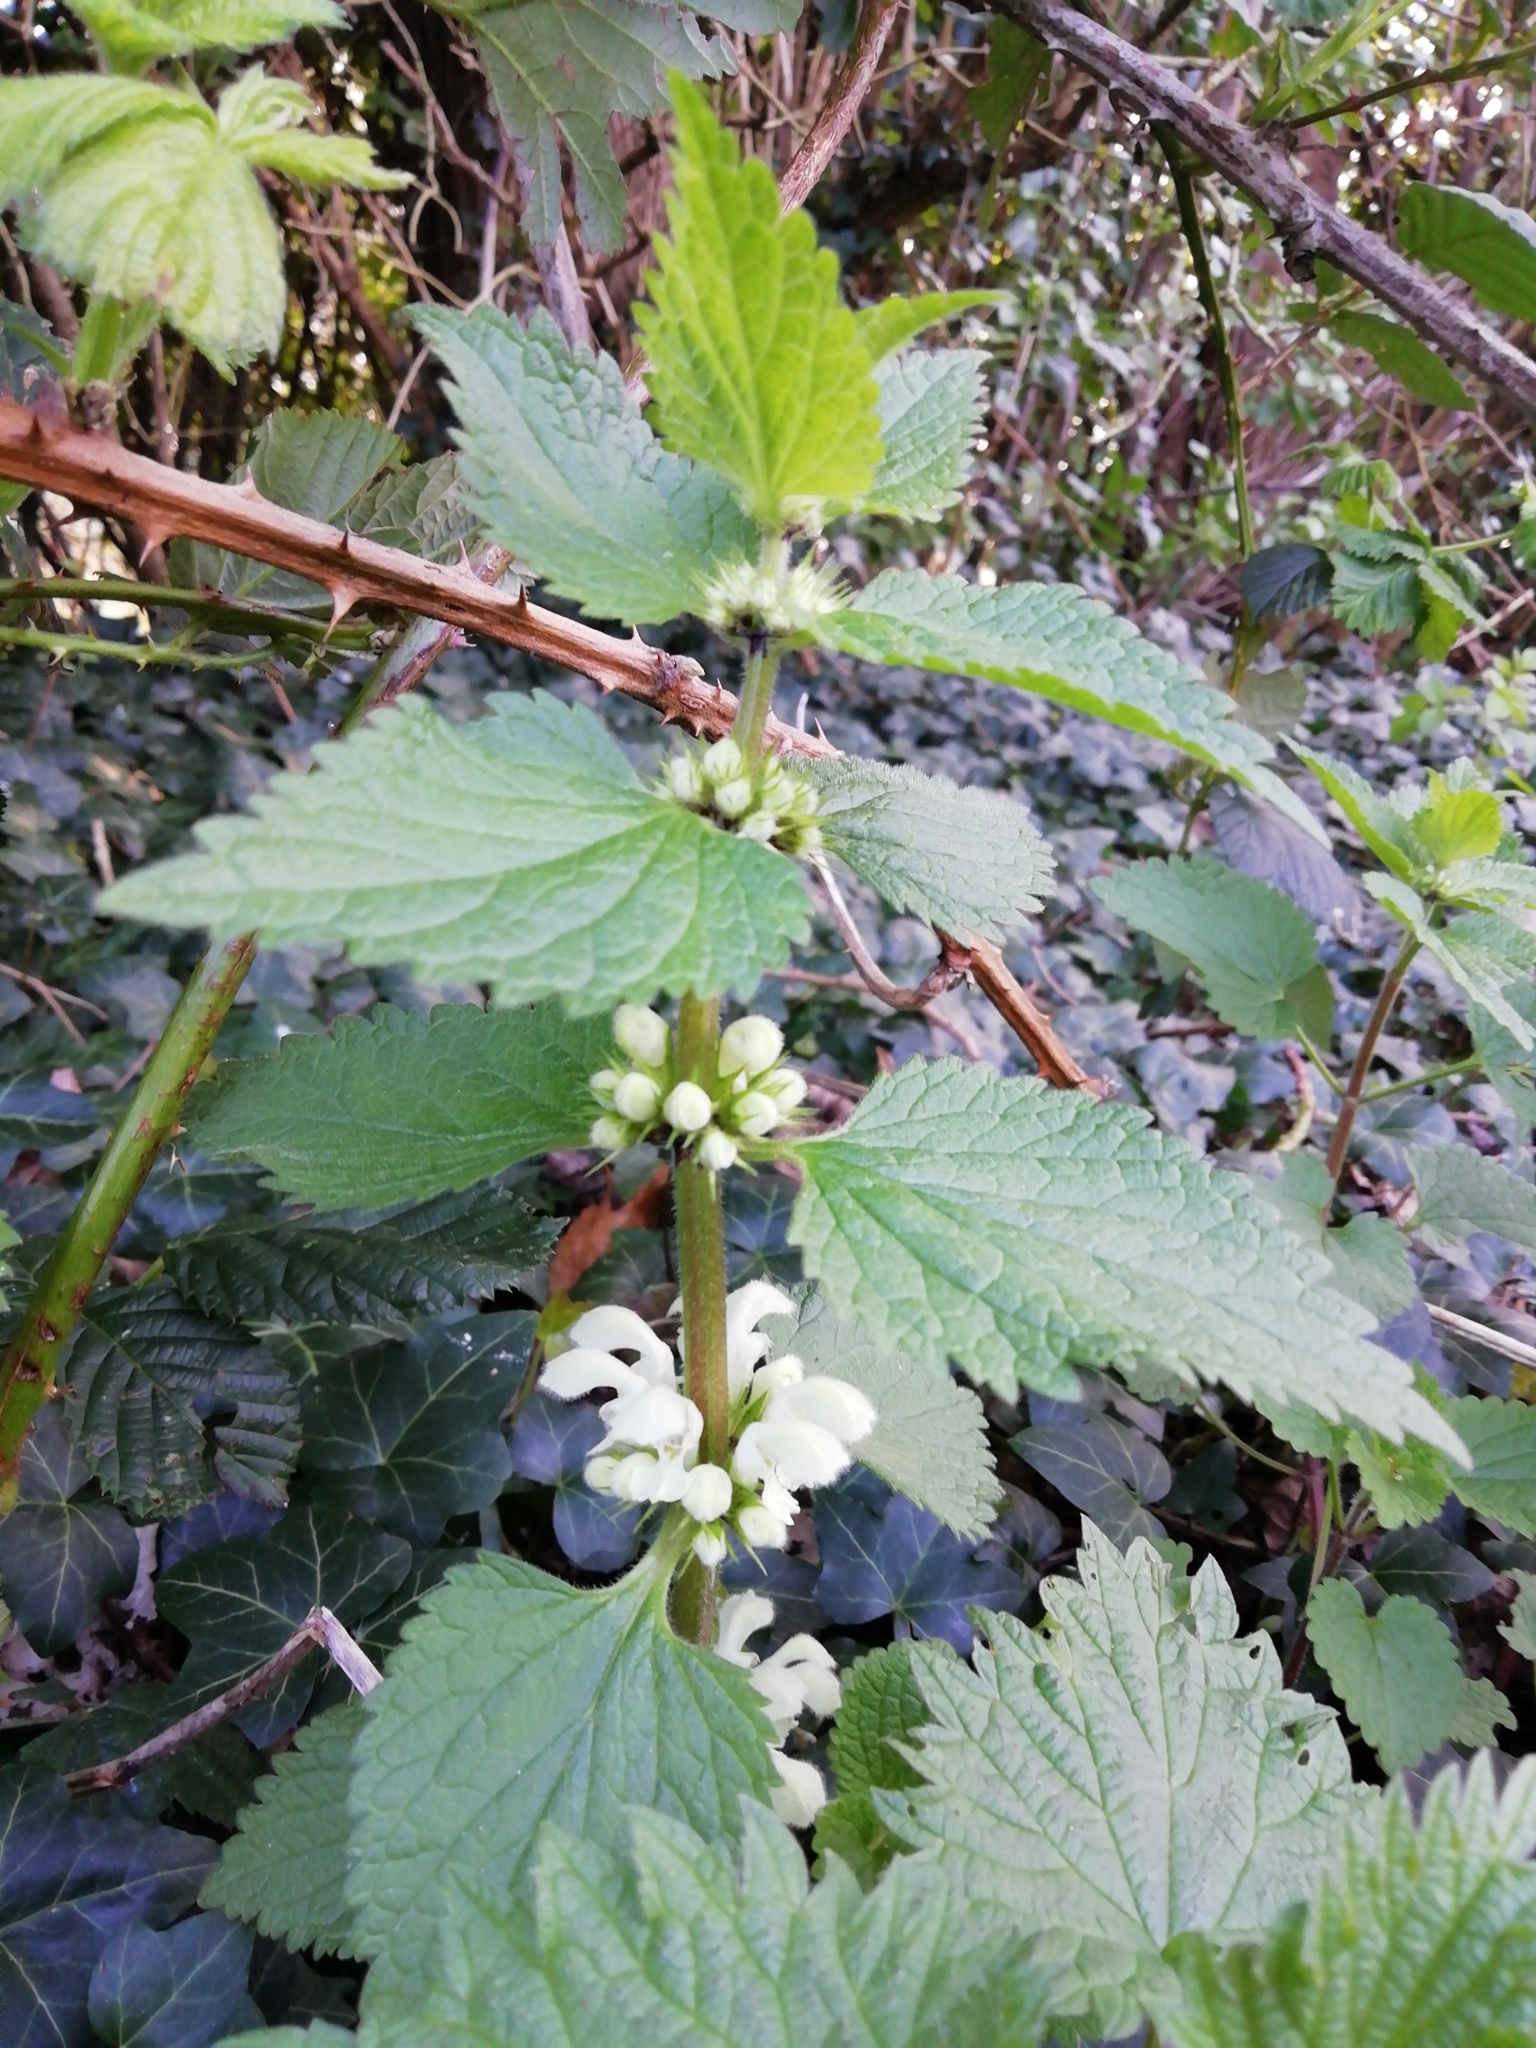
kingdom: Plantae
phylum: Tracheophyta
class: Magnoliopsida
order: Lamiales
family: Lamiaceae
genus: Lamium
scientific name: Lamium album
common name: White dead-nettle
